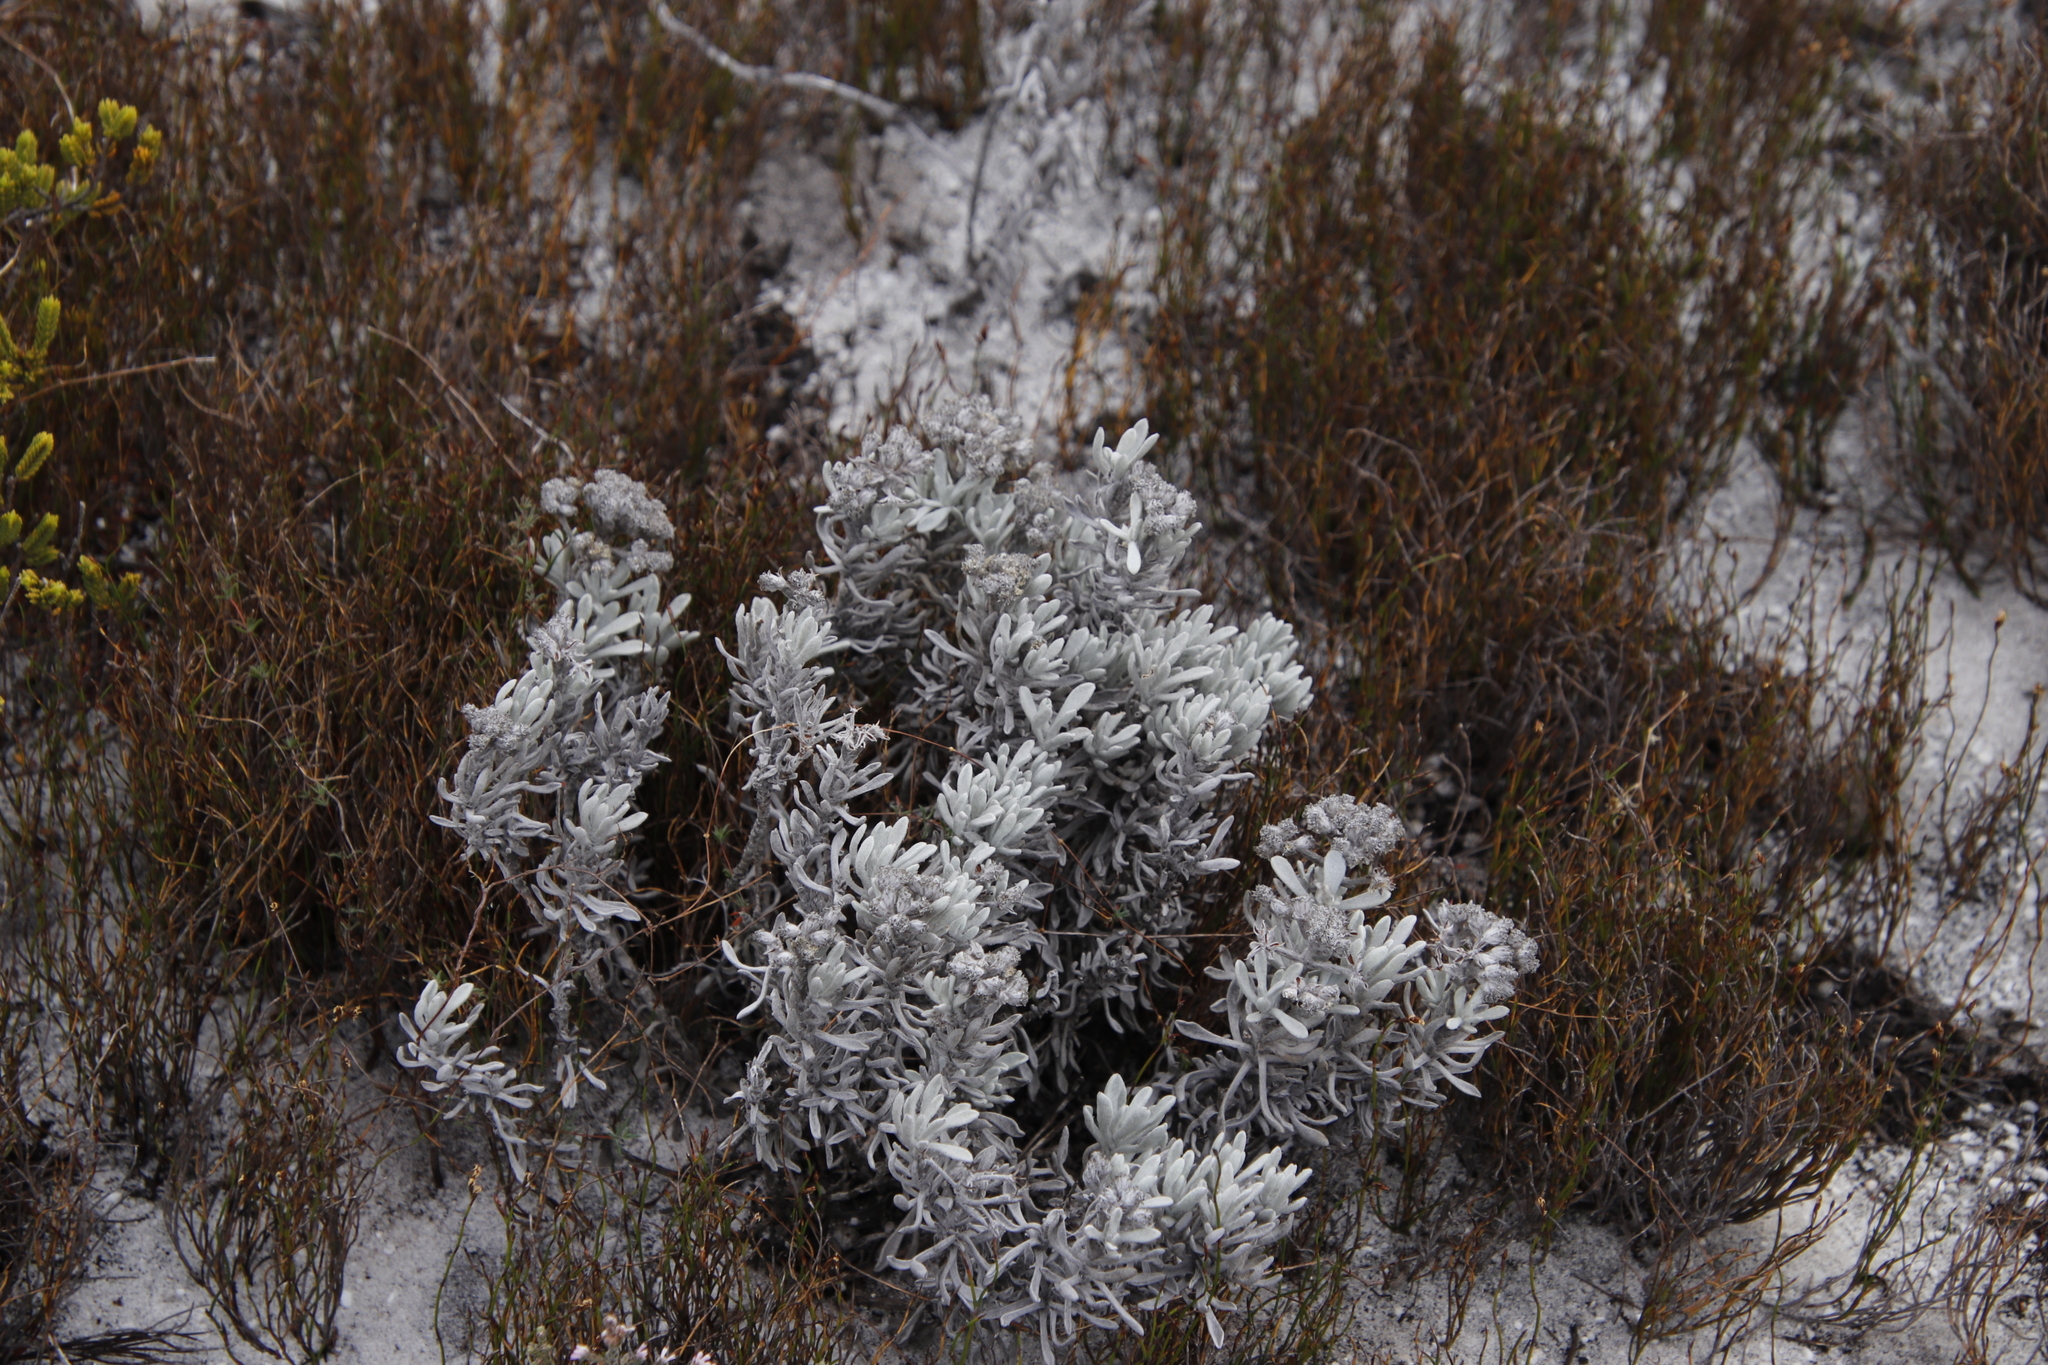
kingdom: Plantae
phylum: Tracheophyta
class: Magnoliopsida
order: Asterales
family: Asteraceae
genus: Petalacte
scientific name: Petalacte coronata
